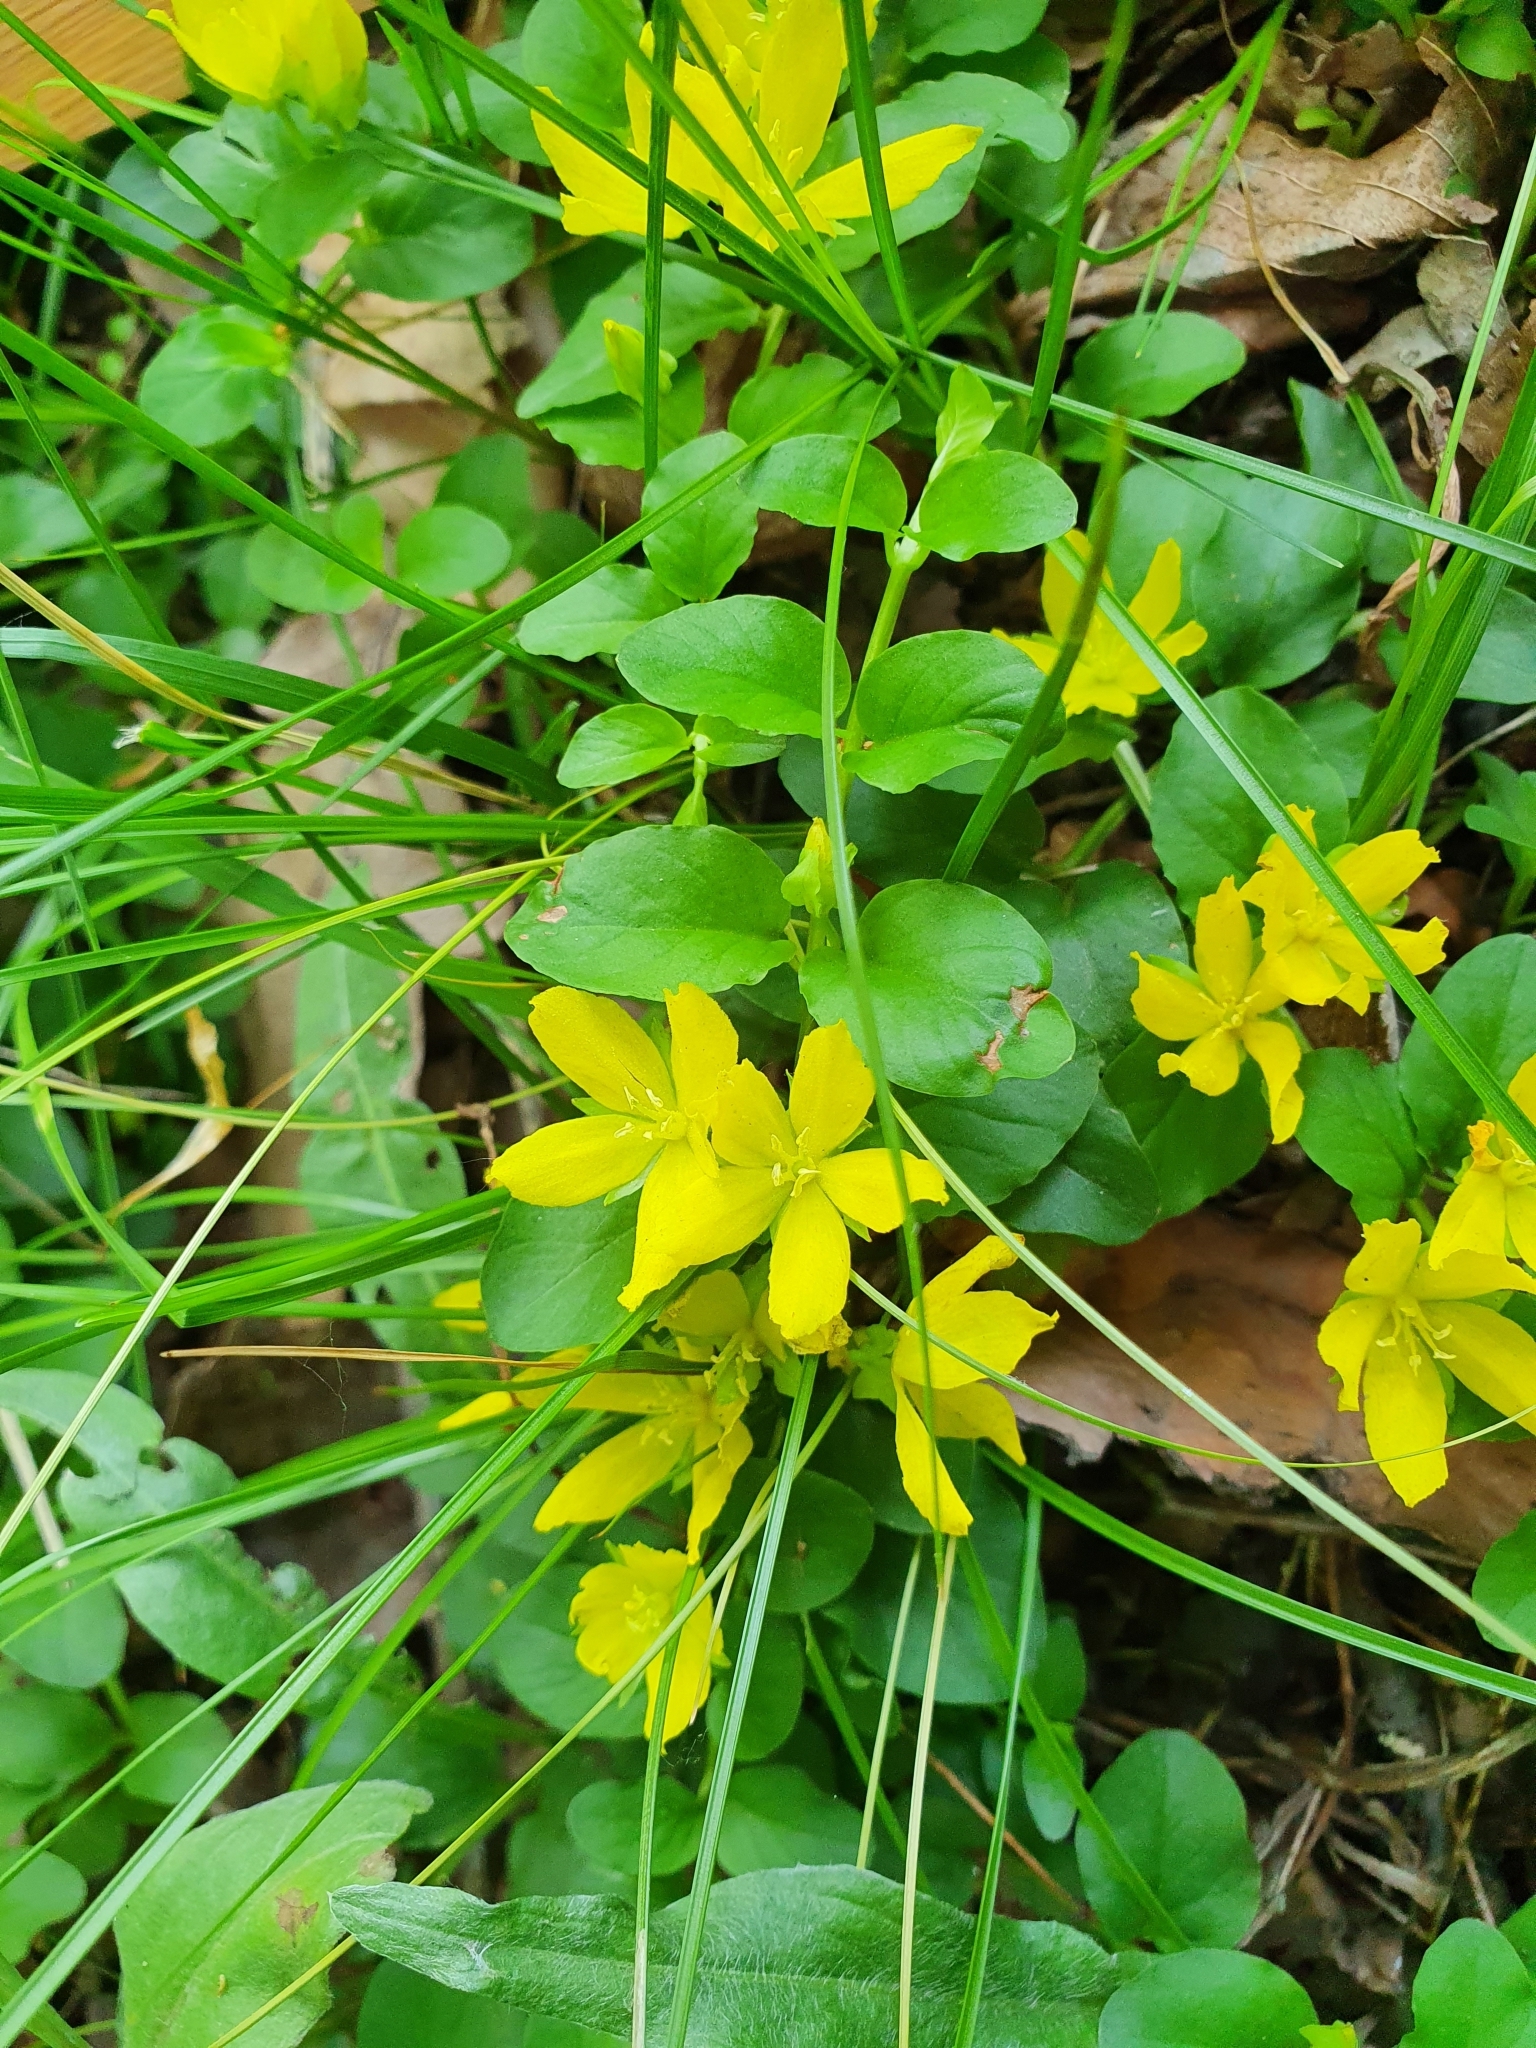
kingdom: Plantae
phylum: Tracheophyta
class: Magnoliopsida
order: Ericales
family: Primulaceae
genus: Lysimachia
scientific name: Lysimachia nummularia
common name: Moneywort
